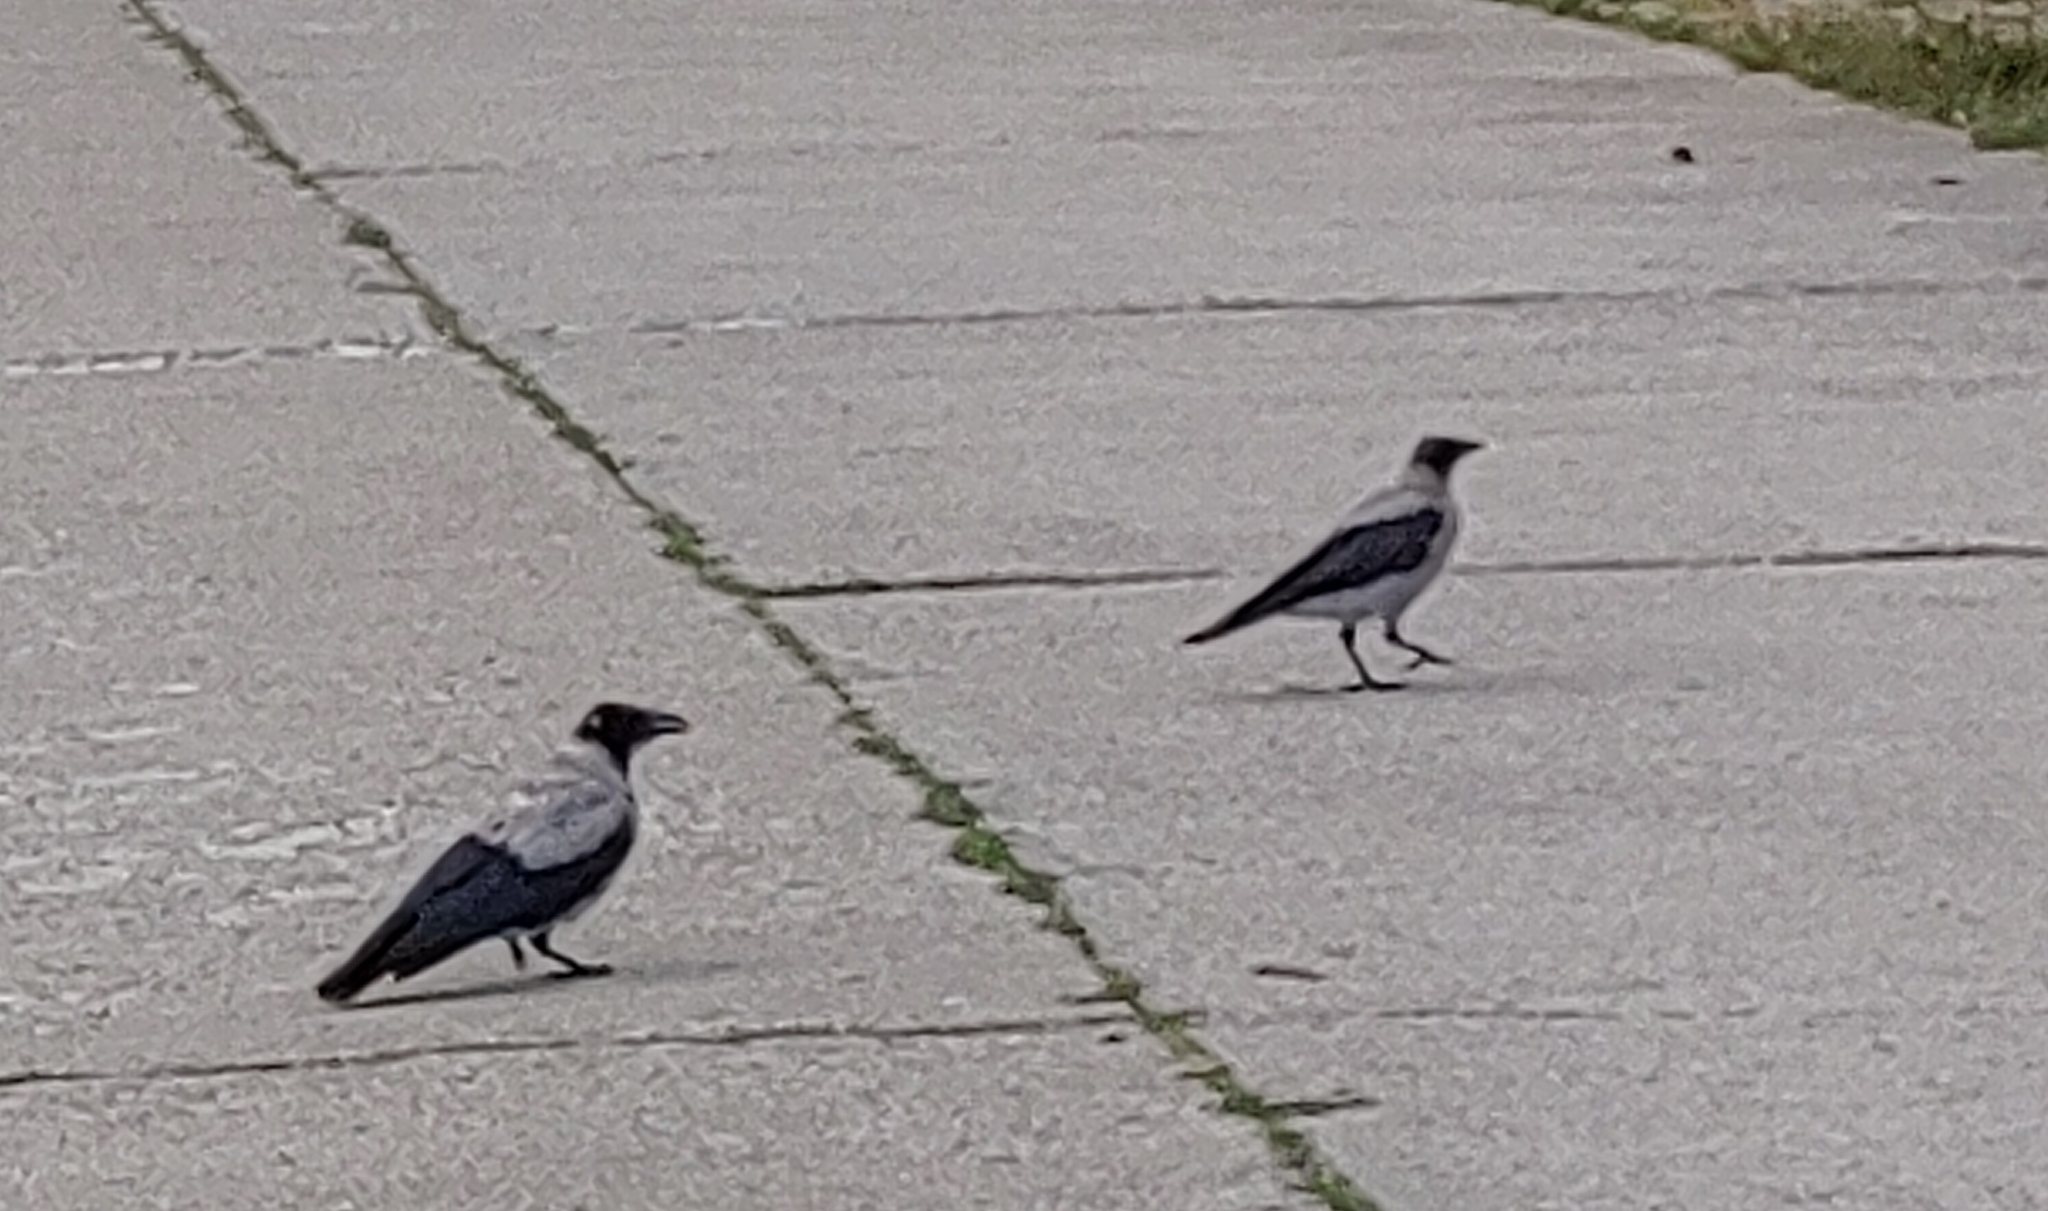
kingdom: Animalia
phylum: Chordata
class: Aves
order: Passeriformes
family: Corvidae
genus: Corvus
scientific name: Corvus cornix
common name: Hooded crow
